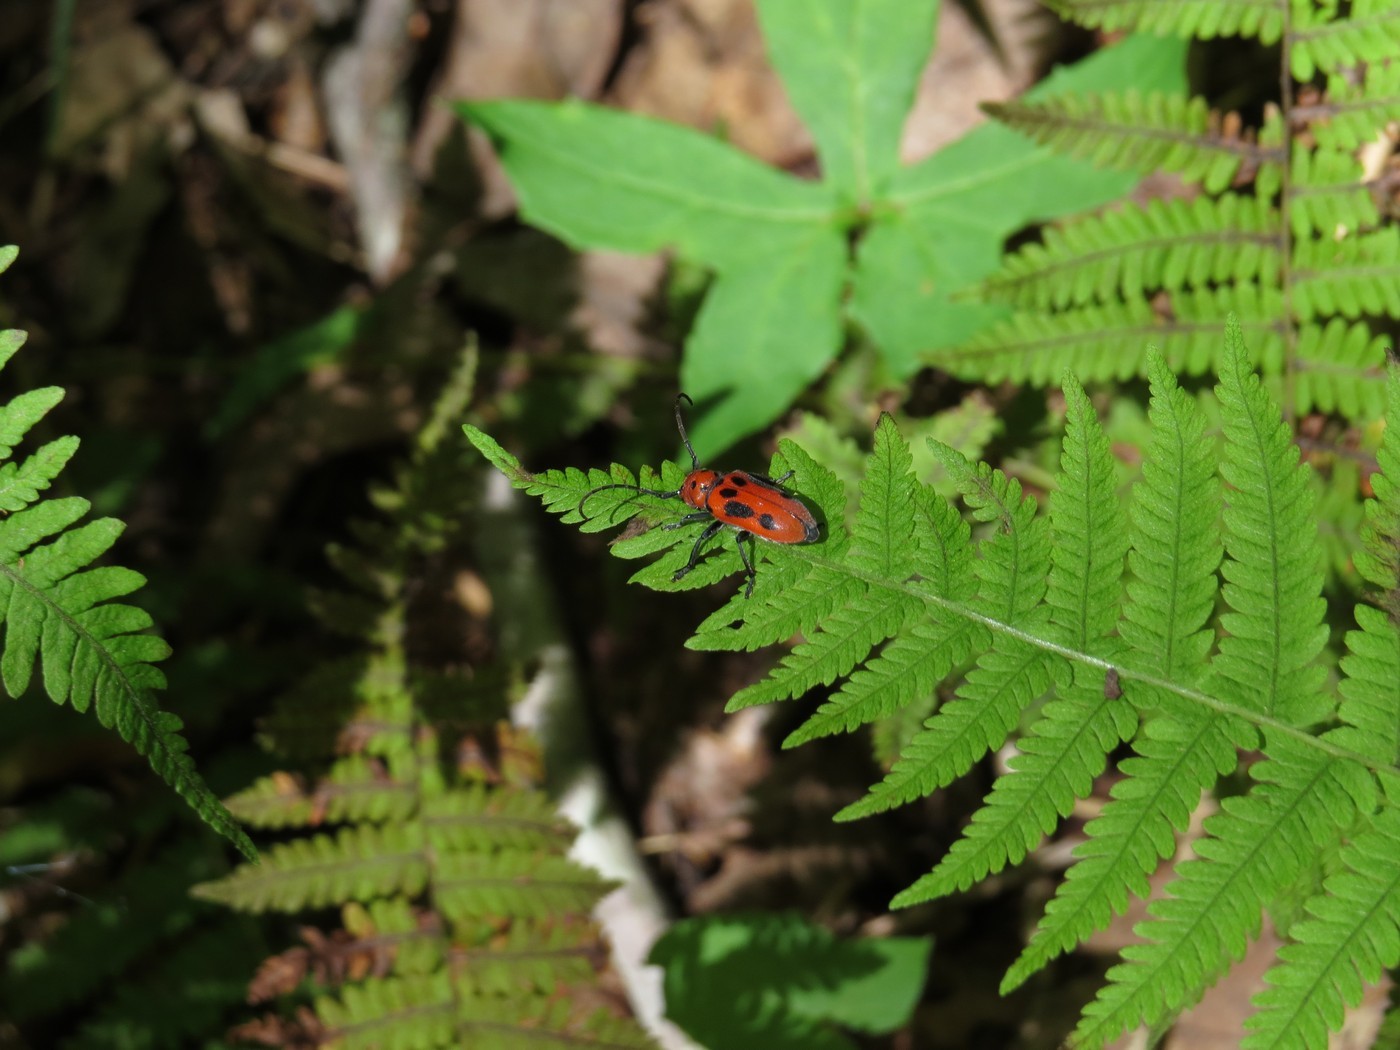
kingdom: Animalia
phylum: Arthropoda
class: Insecta
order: Coleoptera
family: Cerambycidae
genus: Tetraopes
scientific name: Tetraopes tetrophthalmus
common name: Red milkweed beetle
